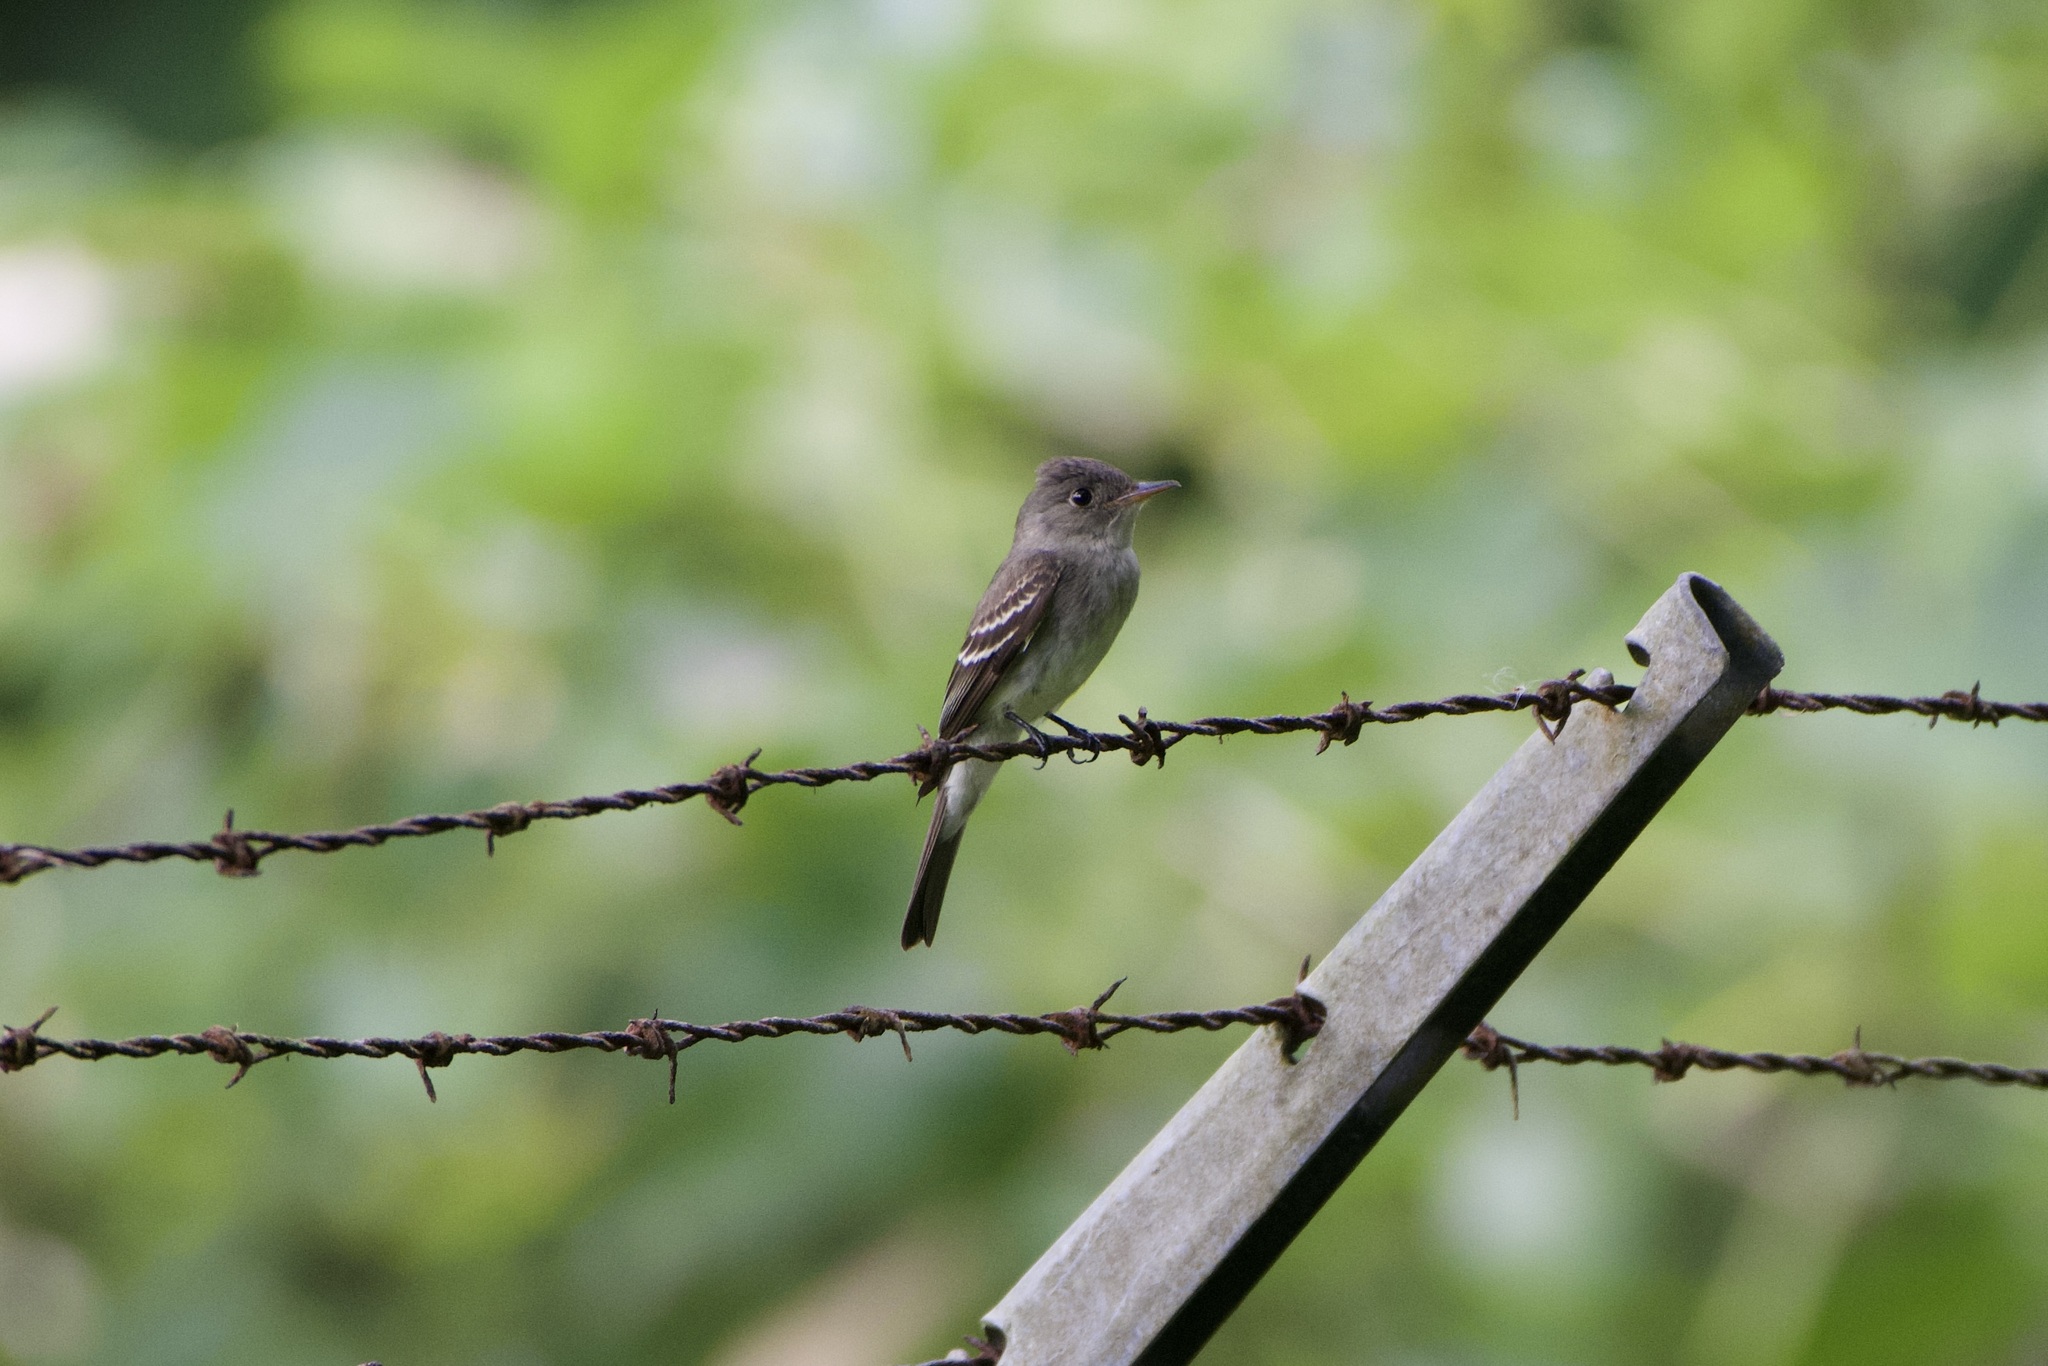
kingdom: Animalia
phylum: Chordata
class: Aves
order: Passeriformes
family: Tyrannidae
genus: Contopus
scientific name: Contopus
